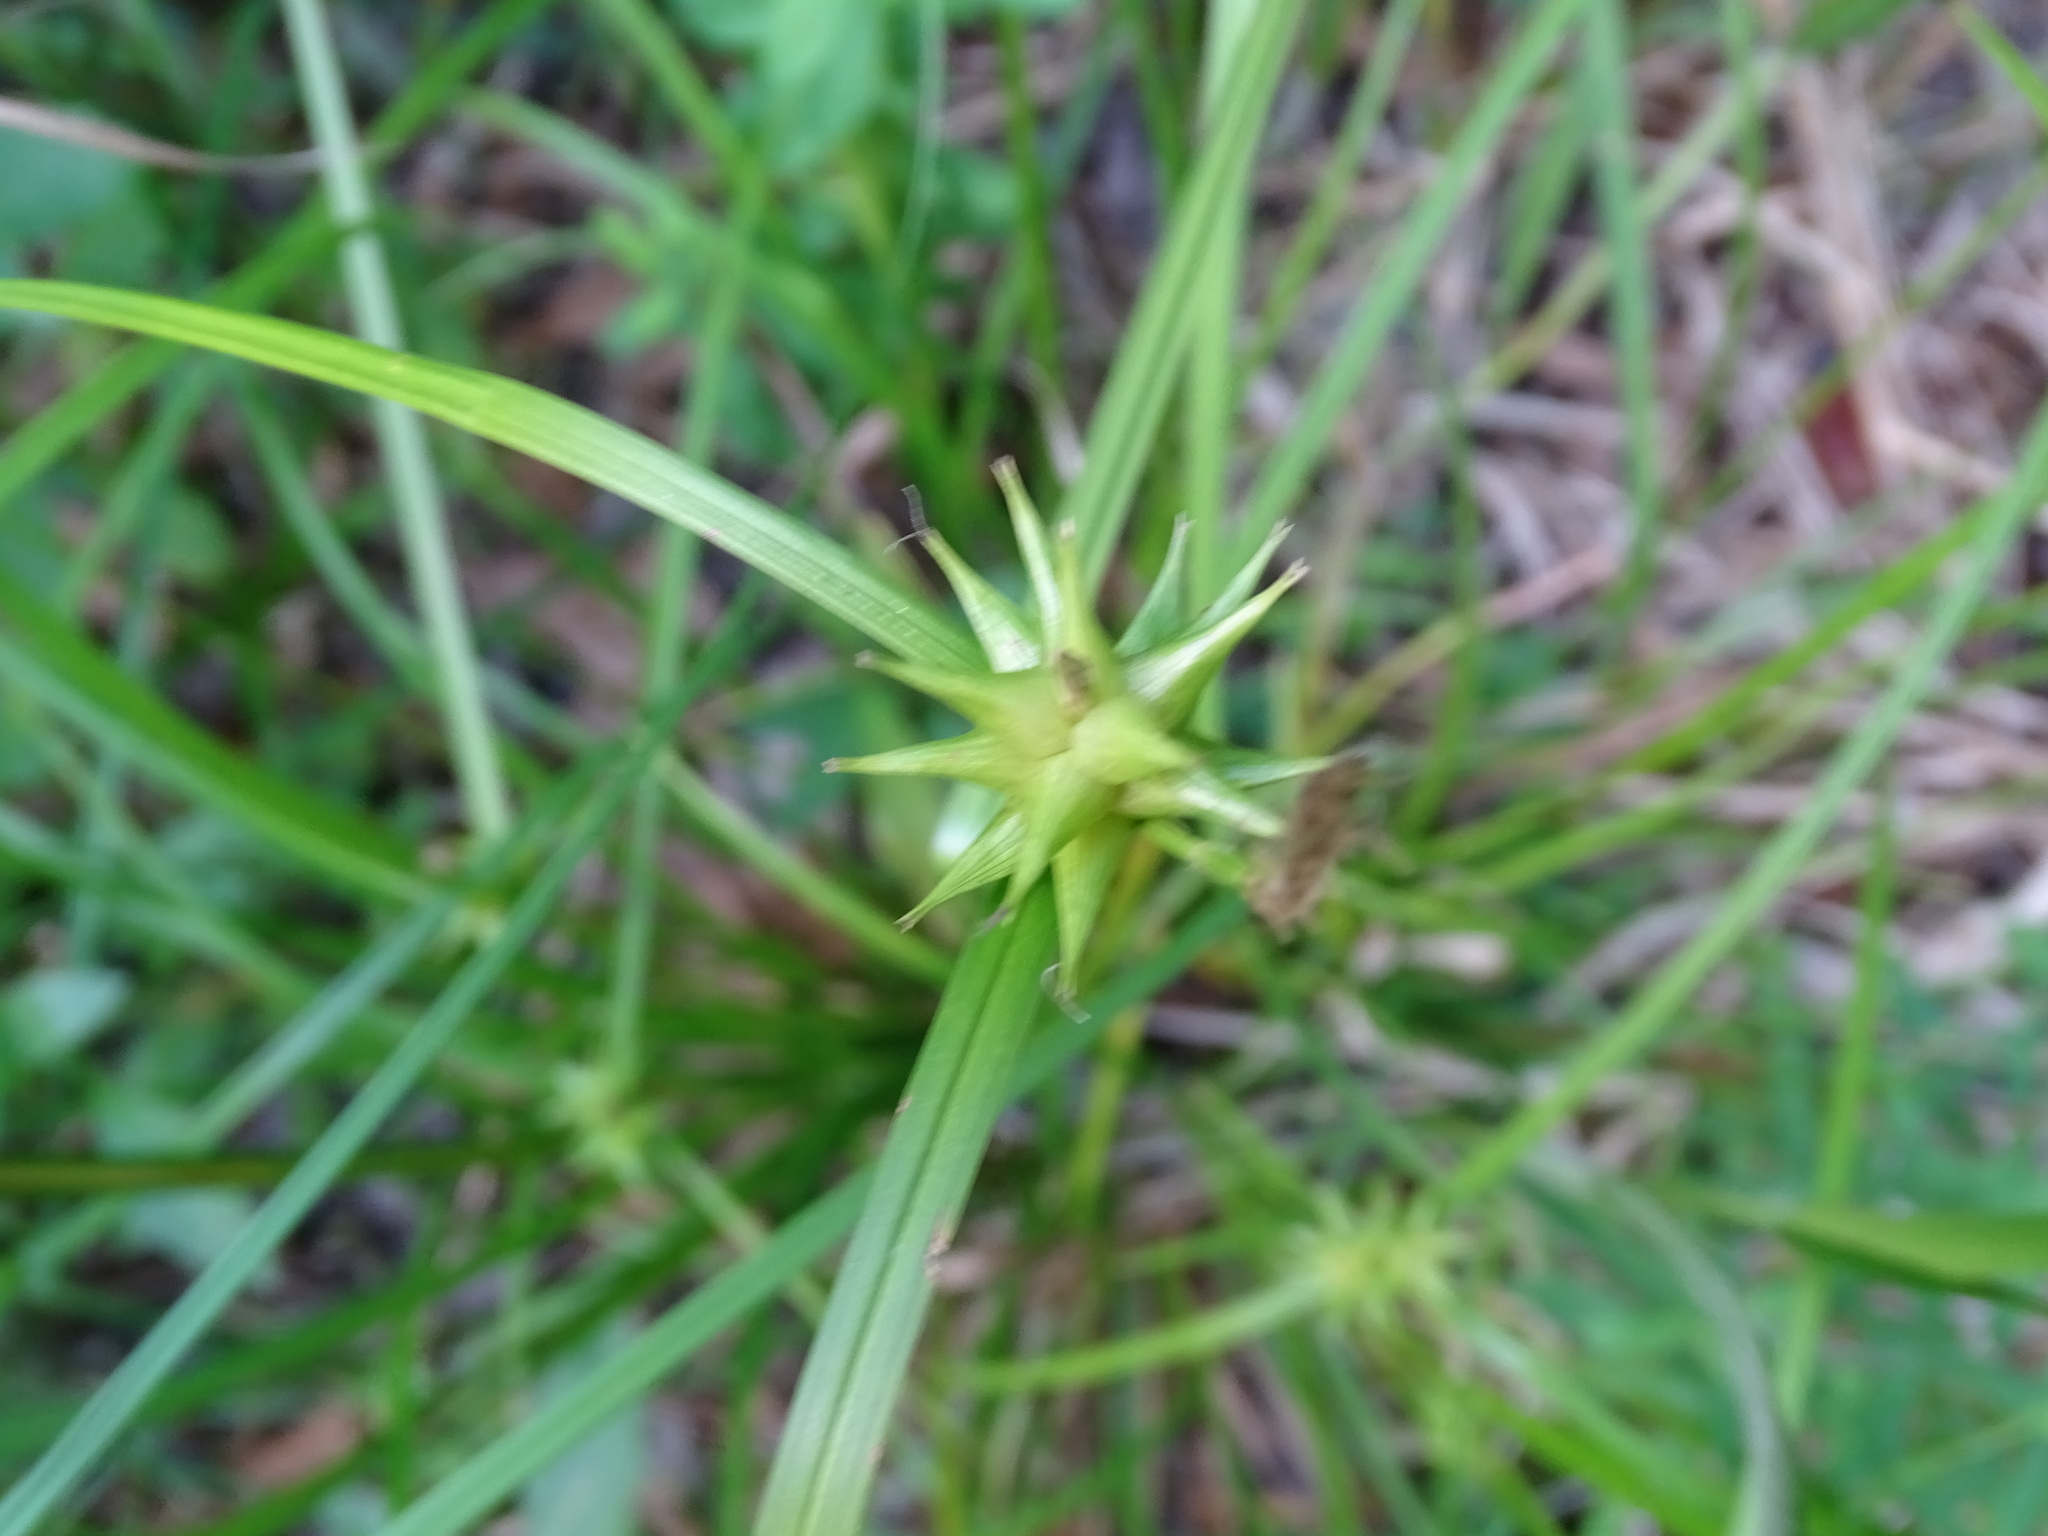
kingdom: Plantae
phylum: Tracheophyta
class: Liliopsida
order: Poales
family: Cyperaceae
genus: Carex
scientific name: Carex intumescens
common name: Greater bladder sedge
